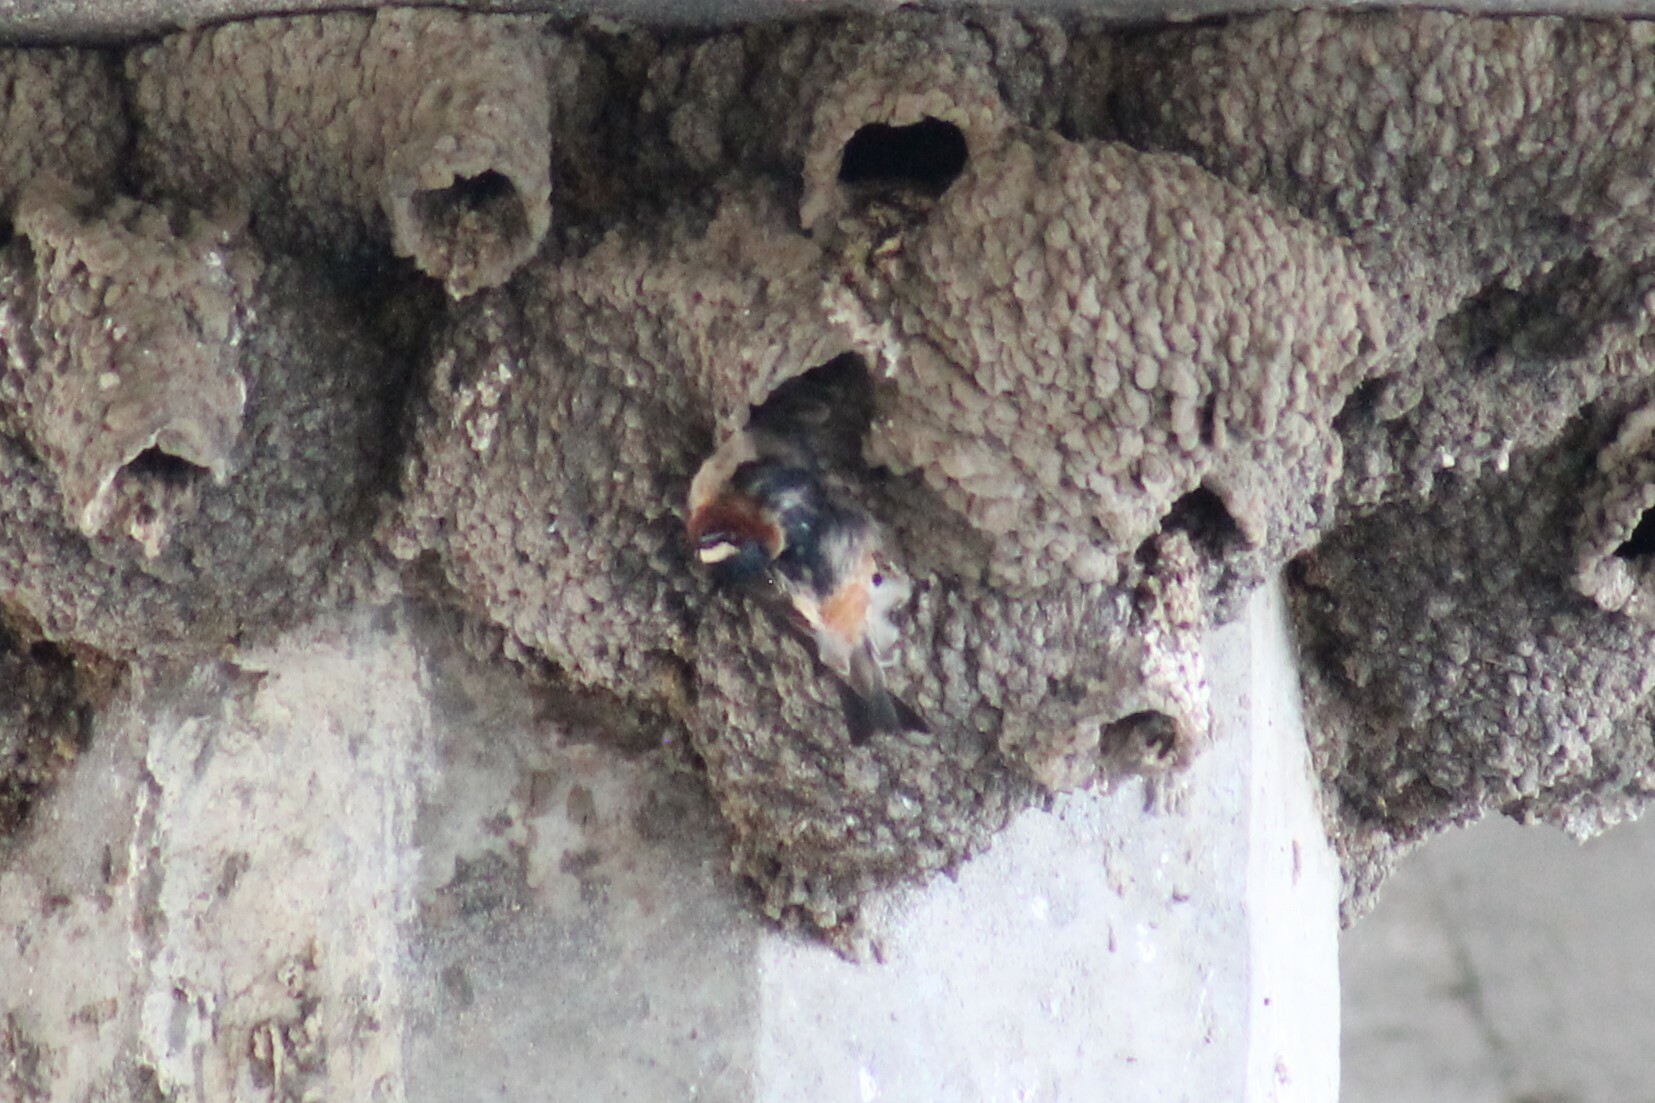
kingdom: Animalia
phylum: Chordata
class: Aves
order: Passeriformes
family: Hirundinidae
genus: Petrochelidon
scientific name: Petrochelidon pyrrhonota
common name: American cliff swallow
